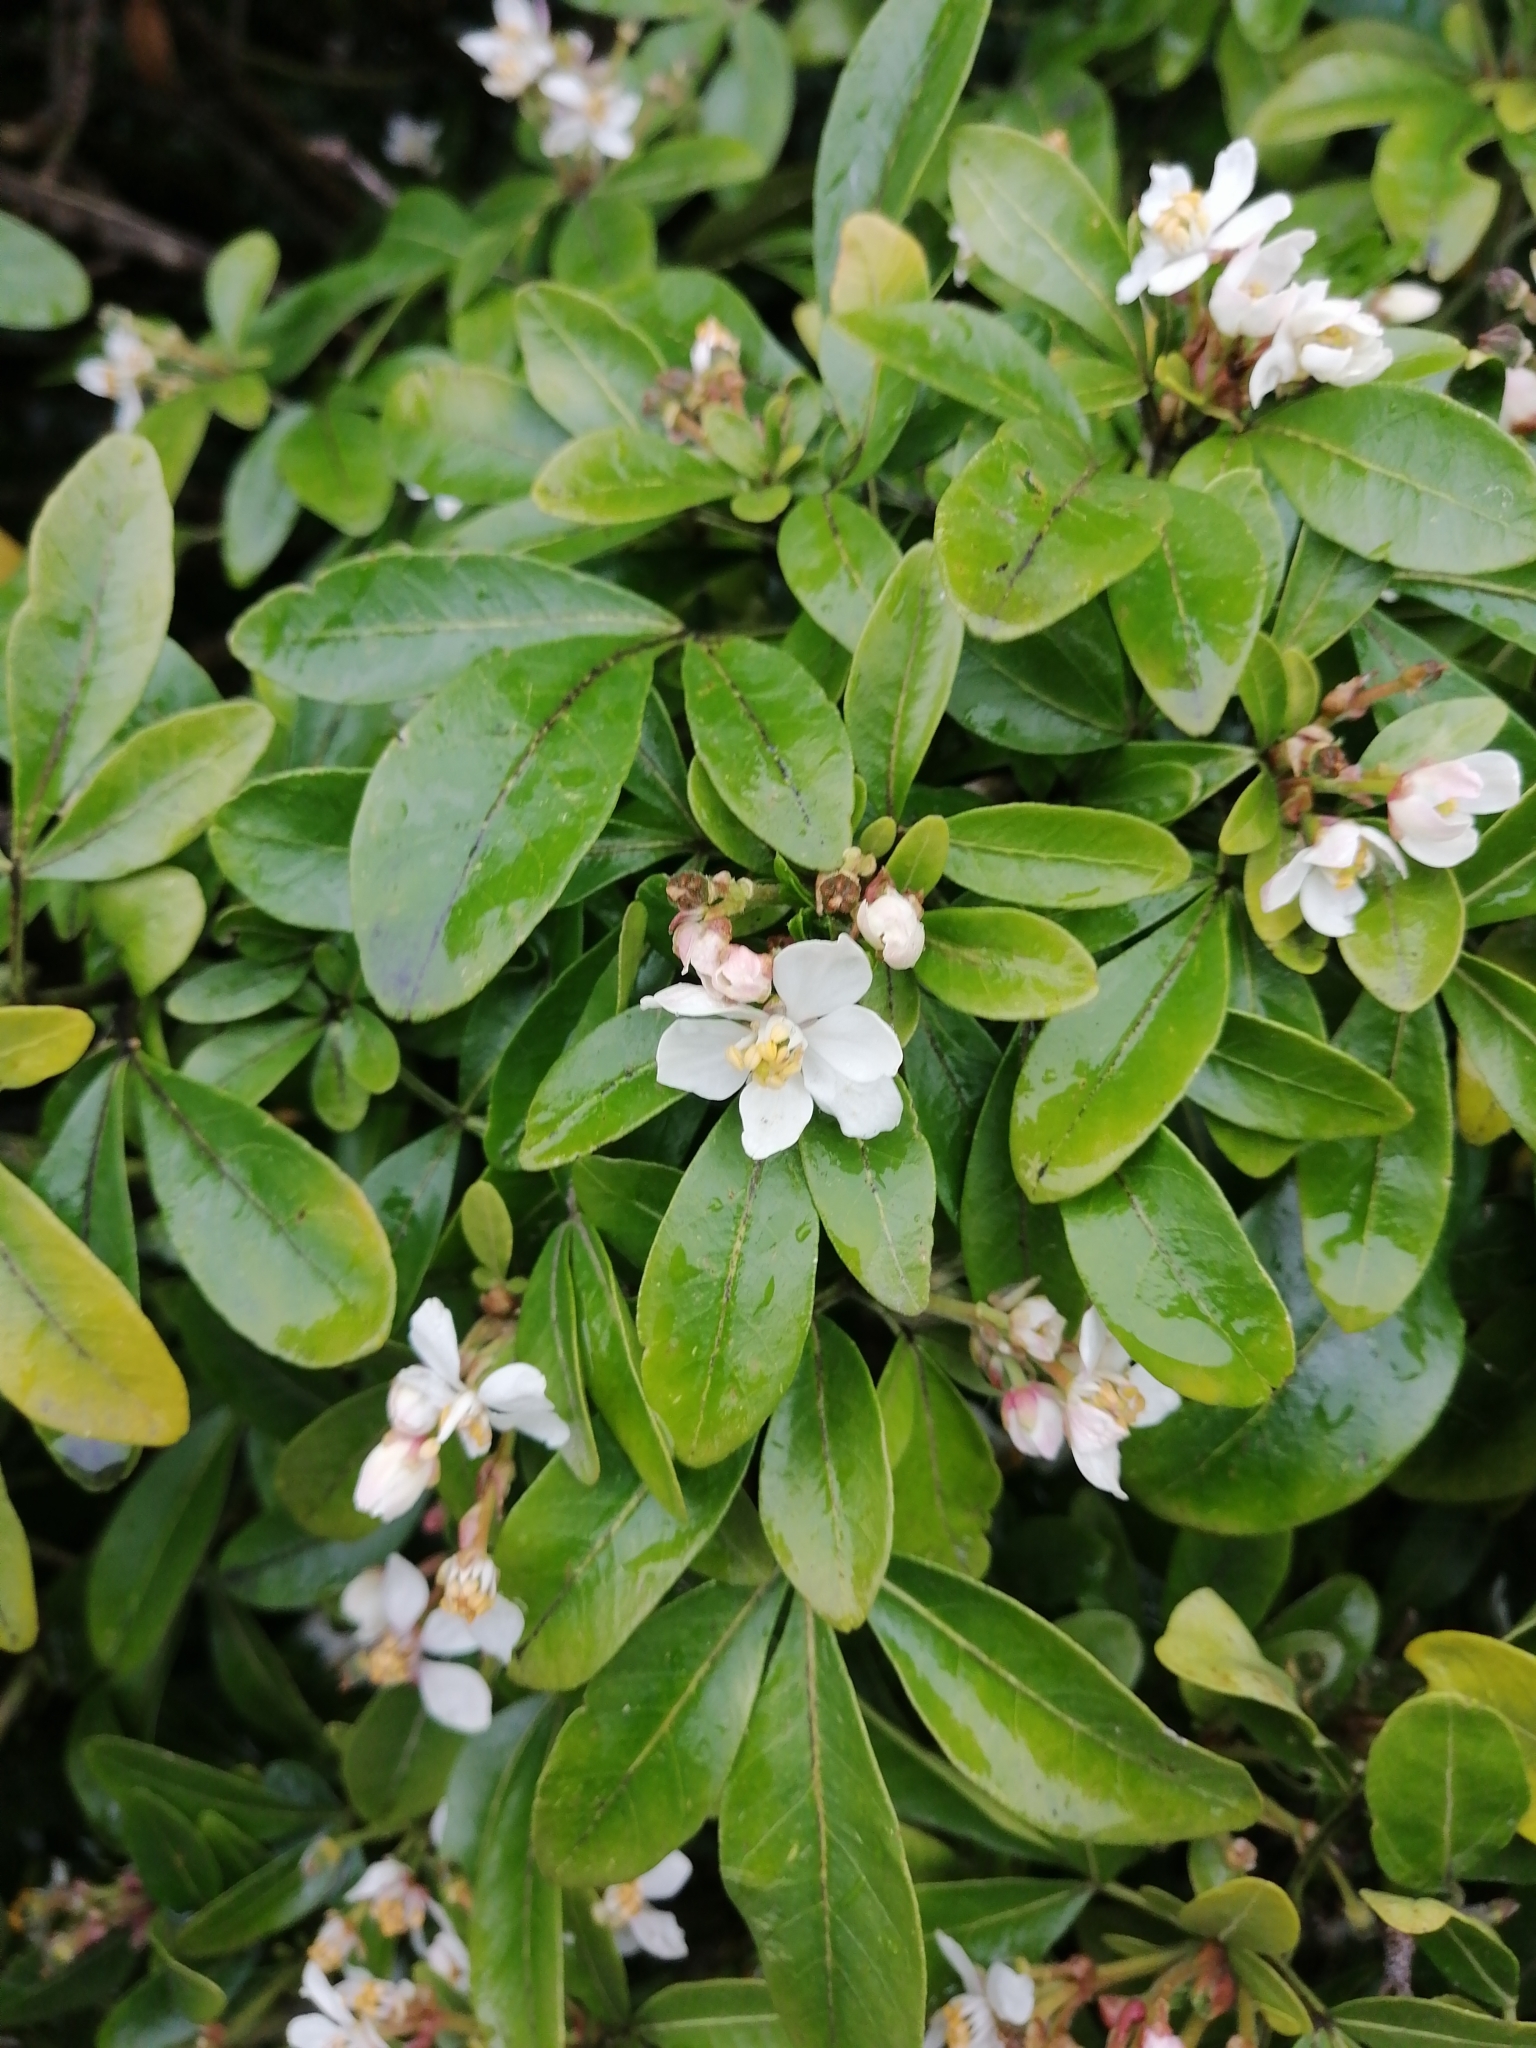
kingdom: Plantae
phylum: Tracheophyta
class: Magnoliopsida
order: Sapindales
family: Rutaceae
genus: Choisya
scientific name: Choisya ternata
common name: Mexican orange
